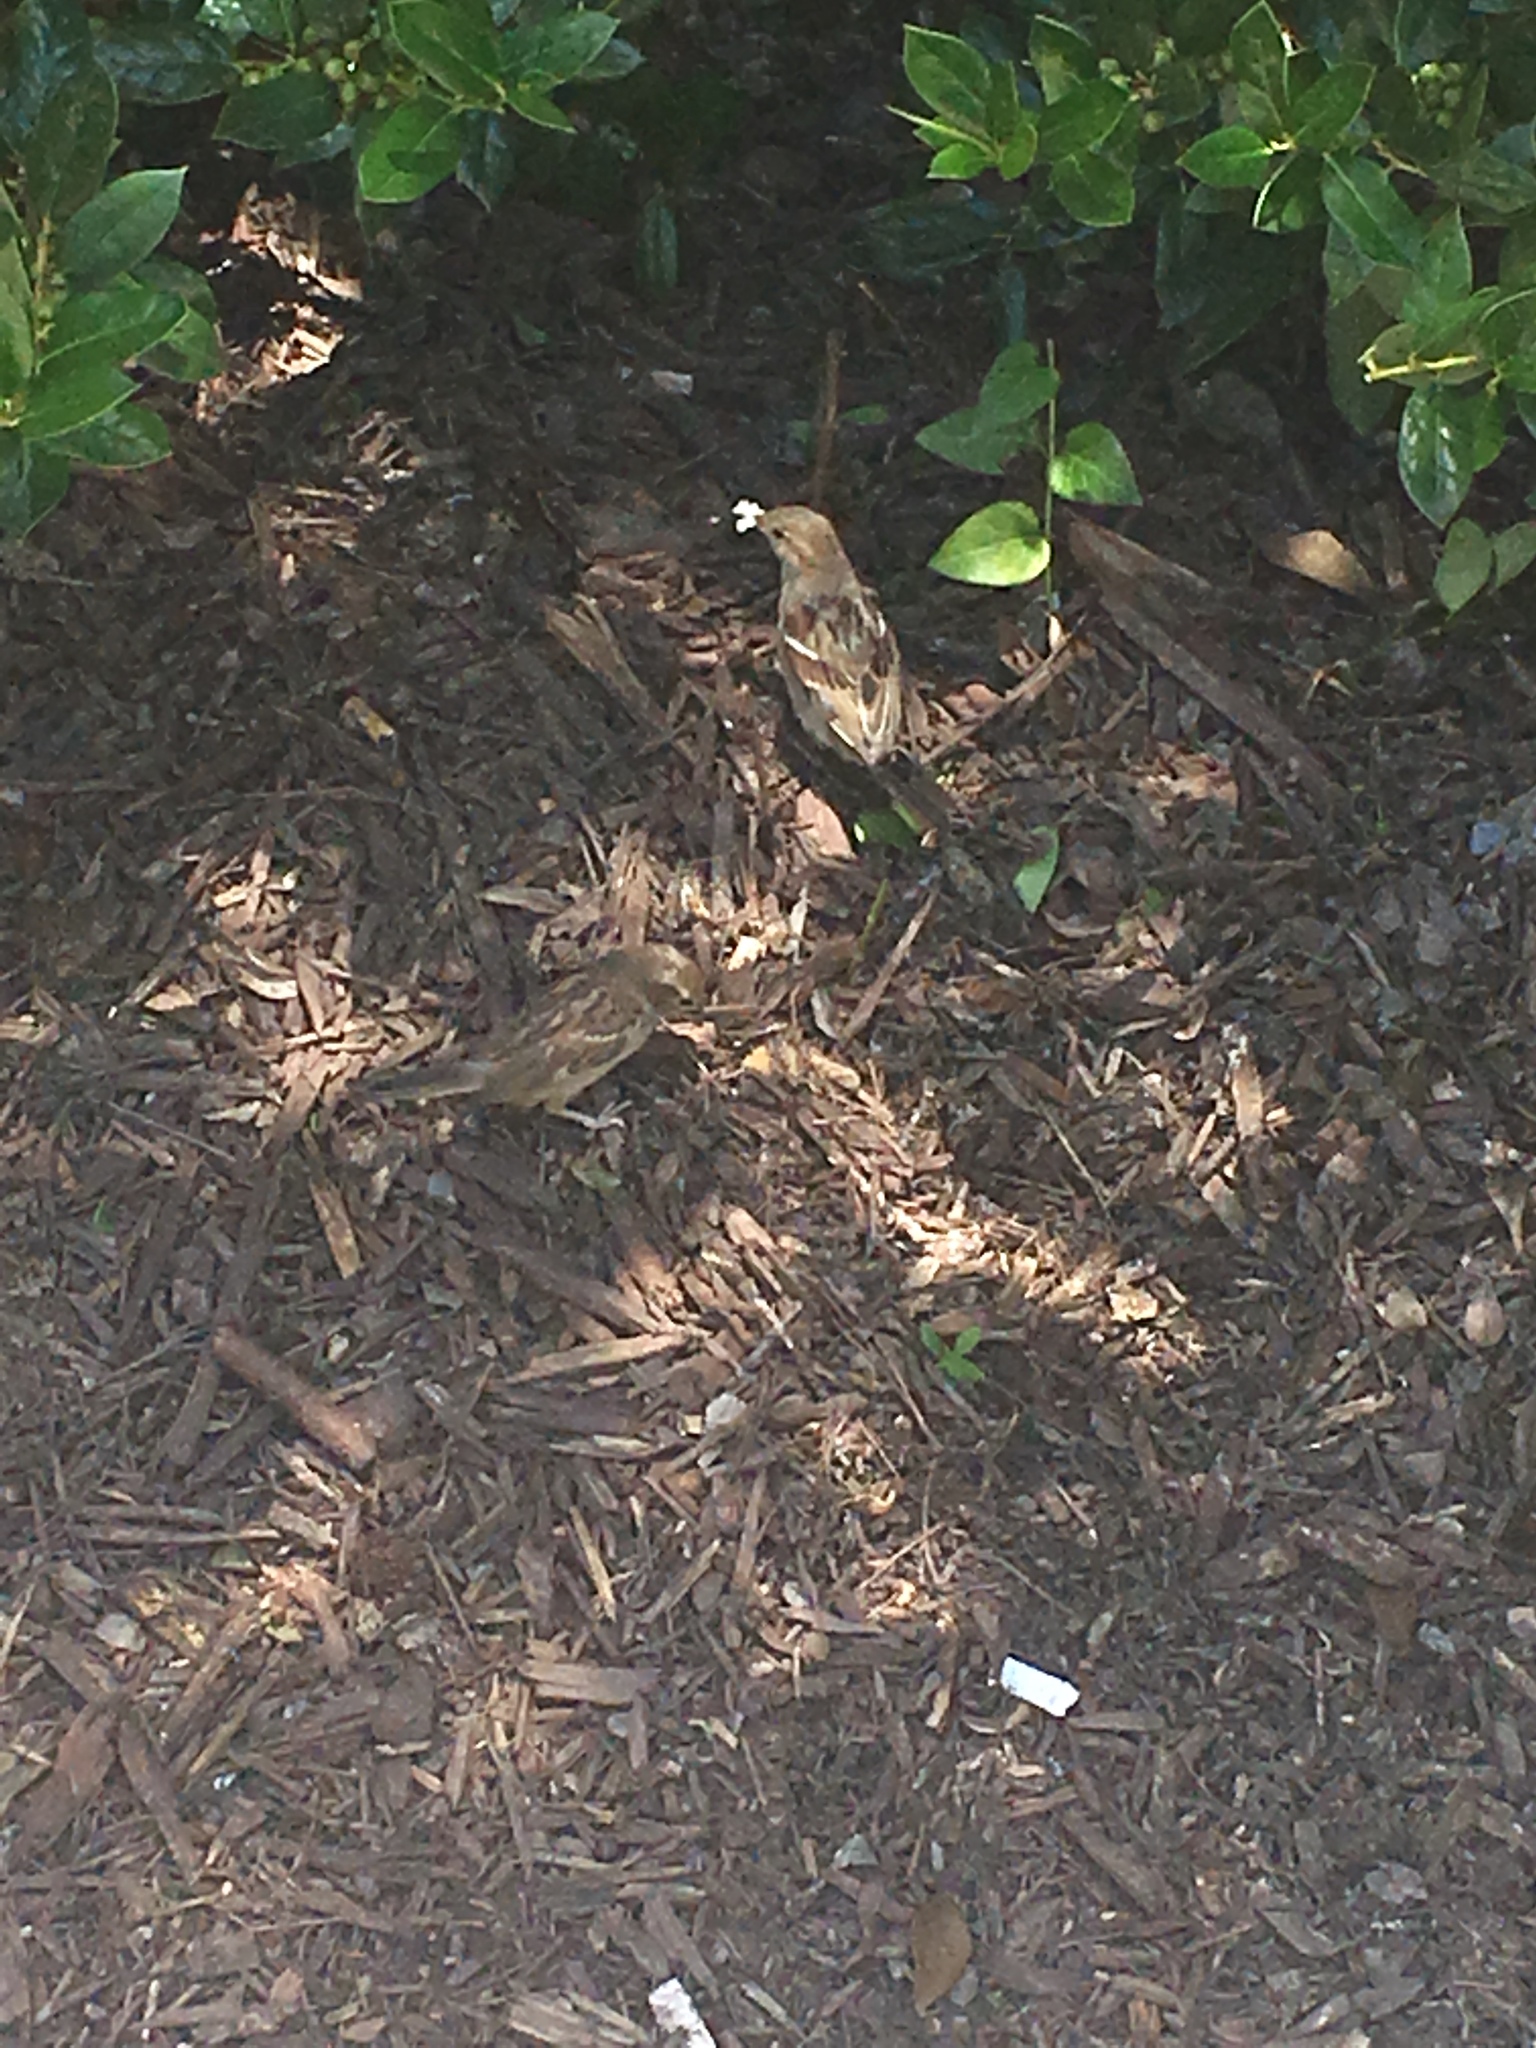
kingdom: Animalia
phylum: Chordata
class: Aves
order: Passeriformes
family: Passeridae
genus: Passer
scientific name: Passer domesticus
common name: House sparrow
